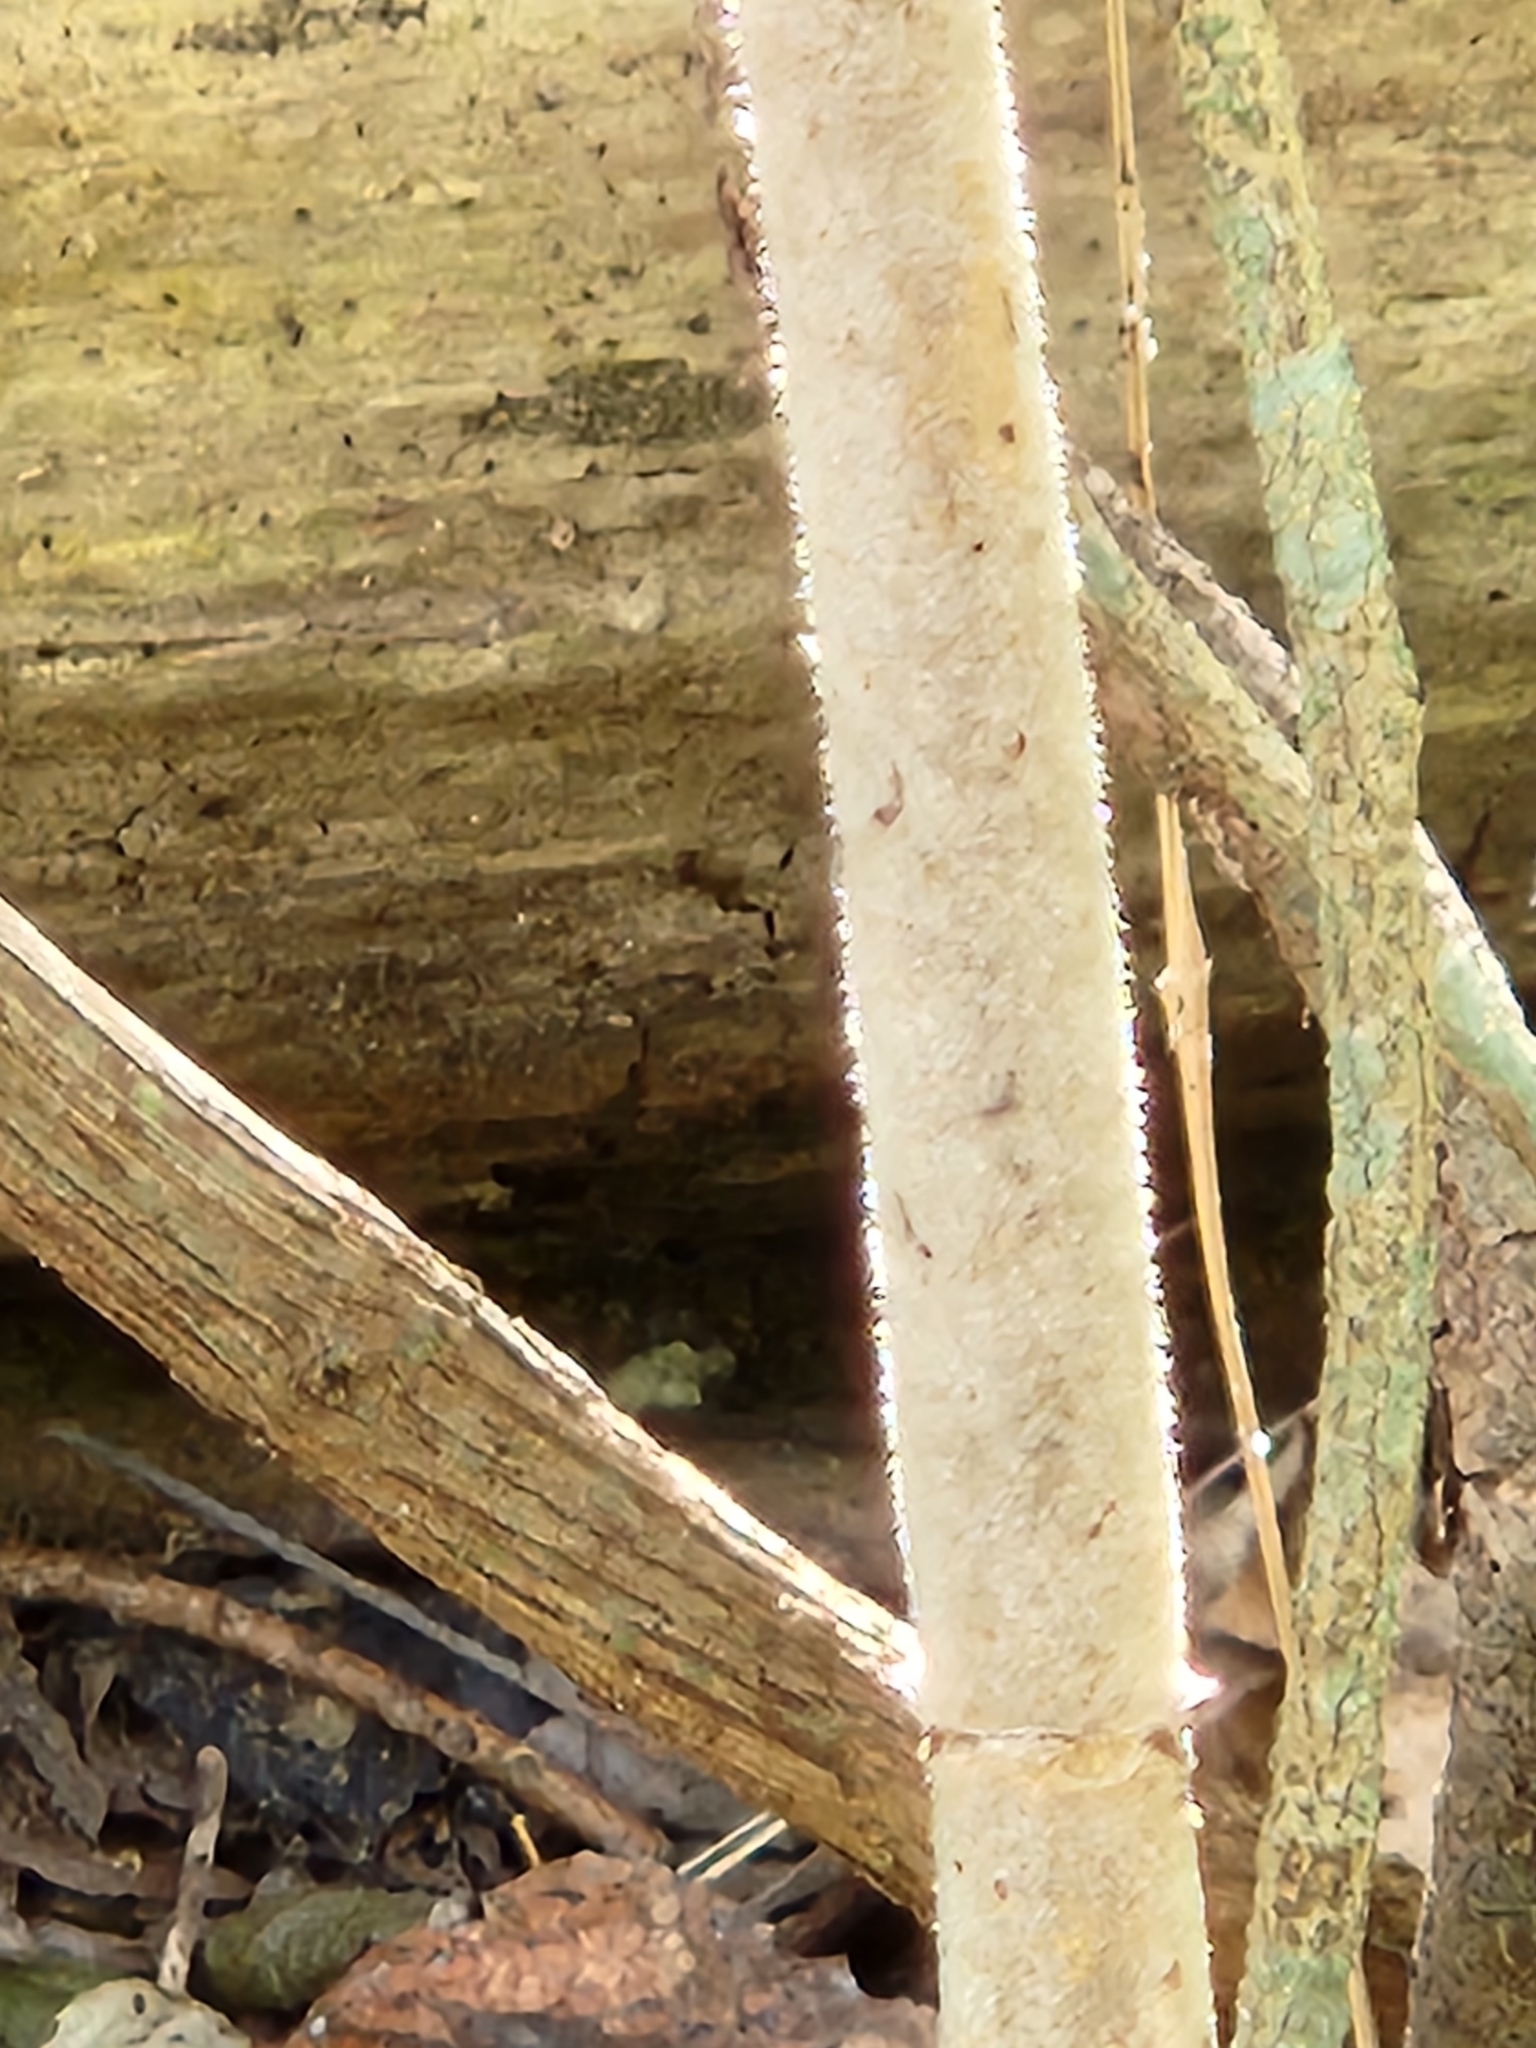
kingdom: Plantae
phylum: Tracheophyta
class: Magnoliopsida
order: Dipsacales
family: Viburnaceae
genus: Sambucus
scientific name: Sambucus canadensis
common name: American elder
